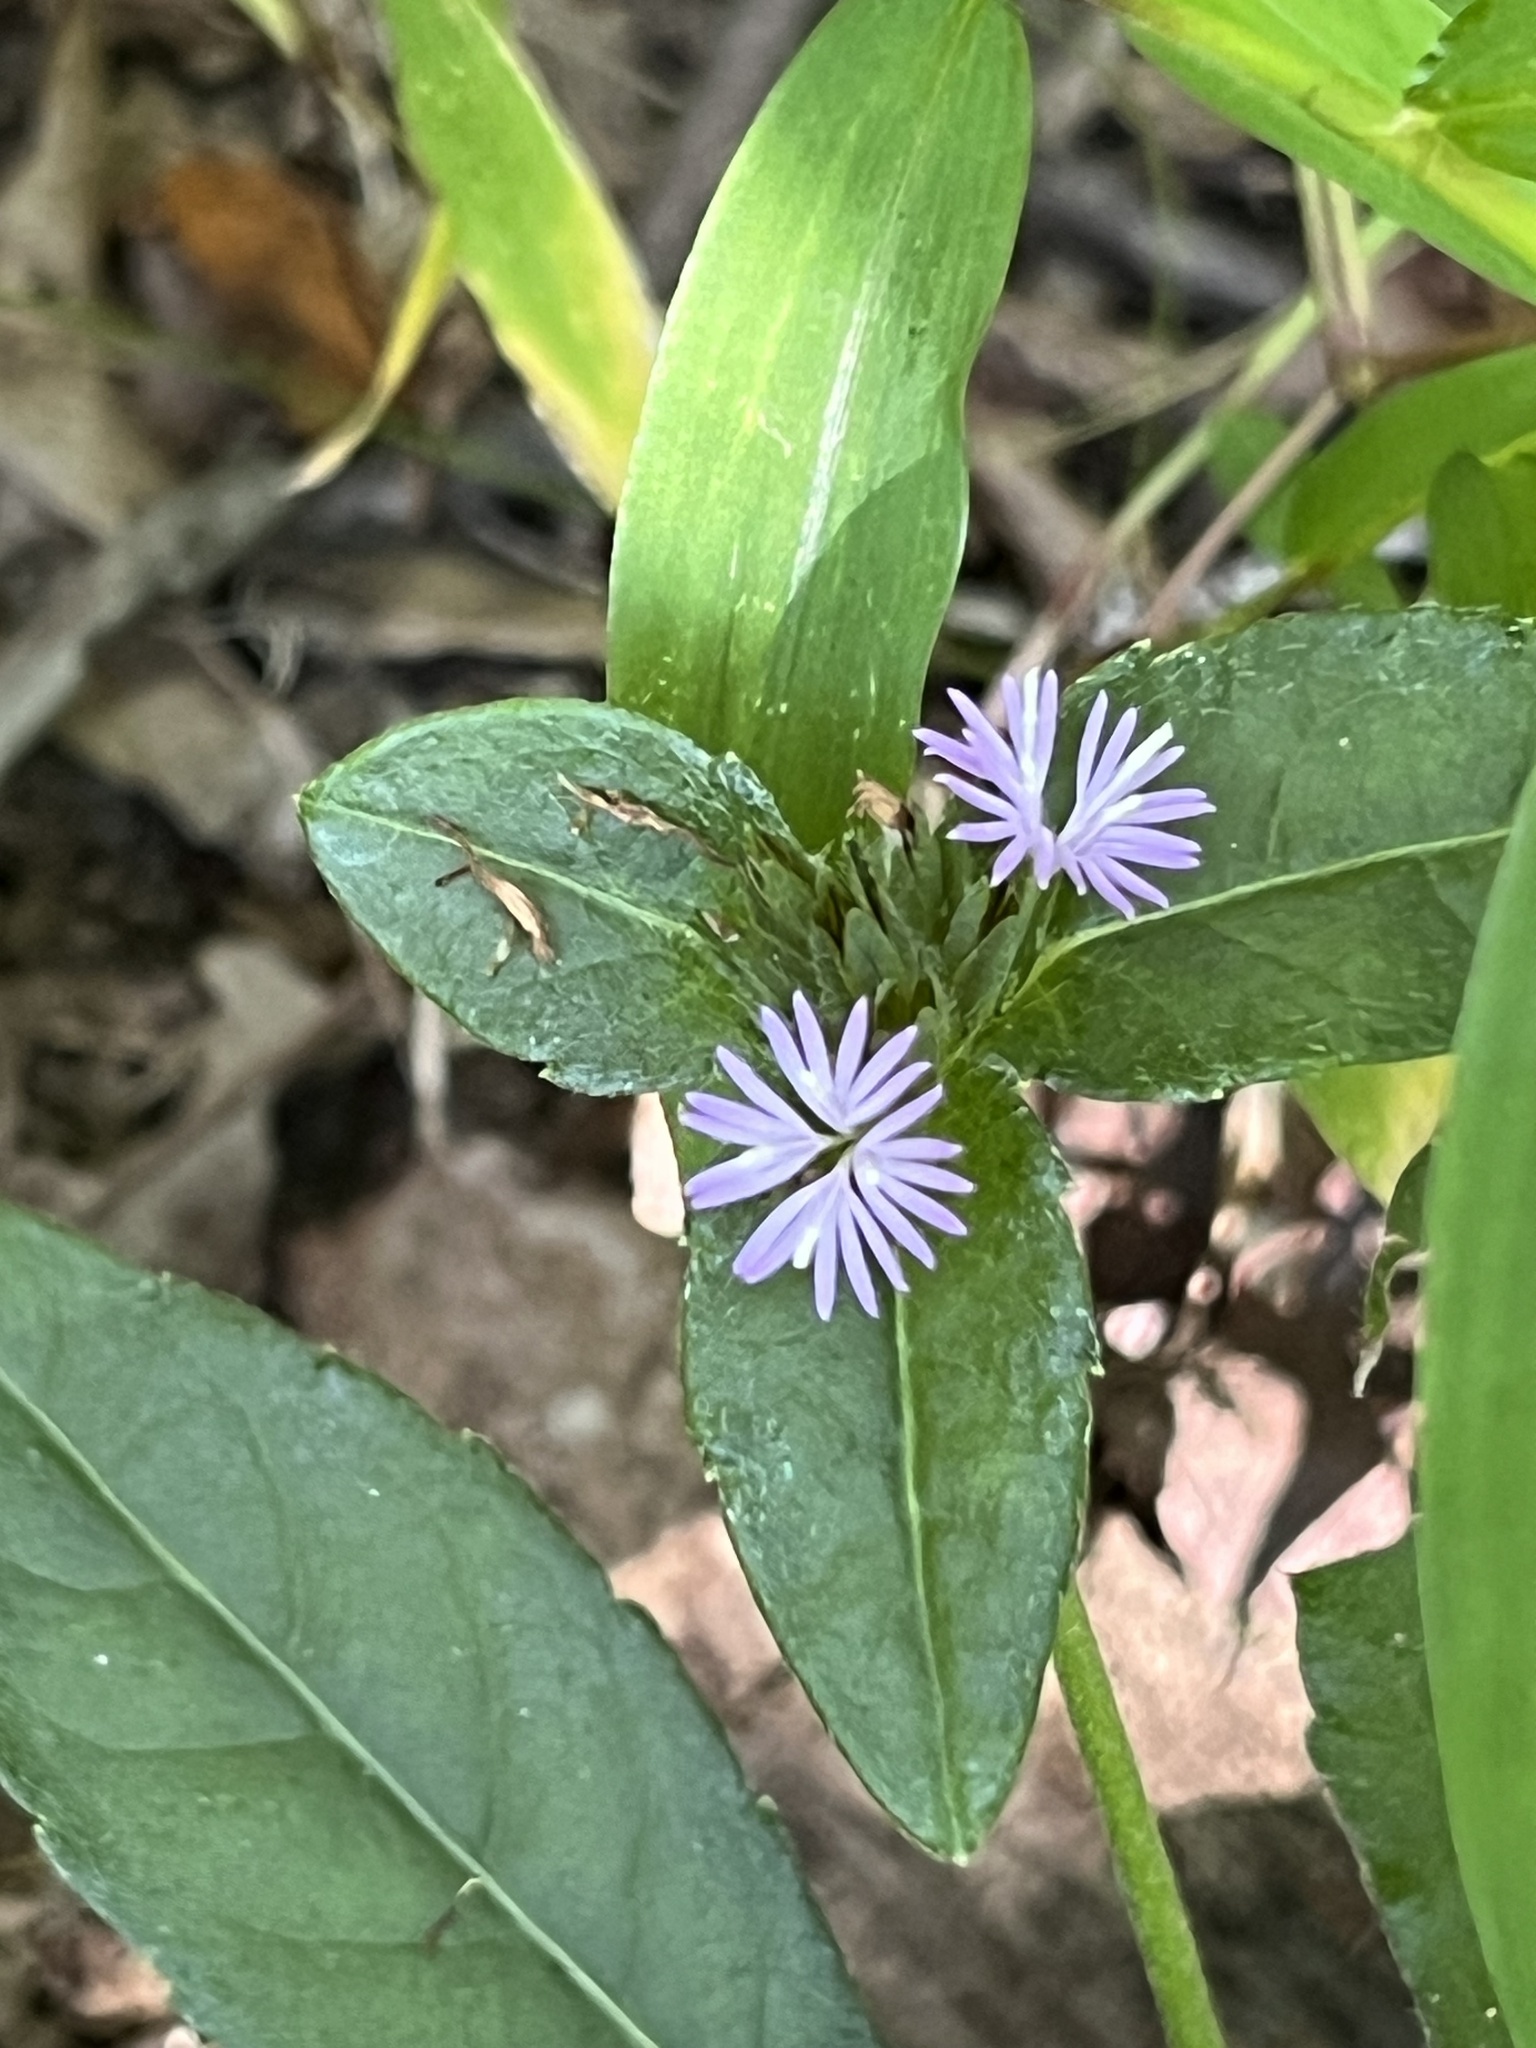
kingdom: Plantae
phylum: Tracheophyta
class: Magnoliopsida
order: Asterales
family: Asteraceae
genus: Elephantopus
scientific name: Elephantopus carolinianus
